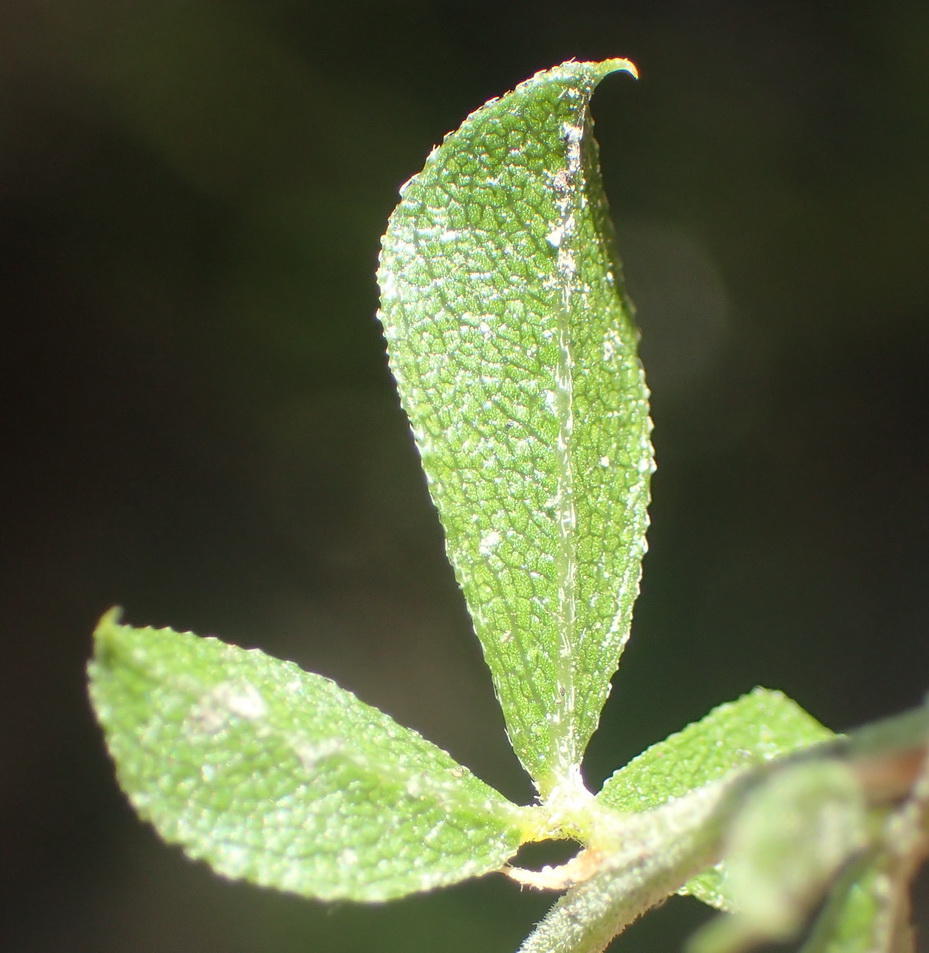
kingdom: Plantae
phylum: Tracheophyta
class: Magnoliopsida
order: Fabales
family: Fabaceae
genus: Psoralea
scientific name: Psoralea bowieana
